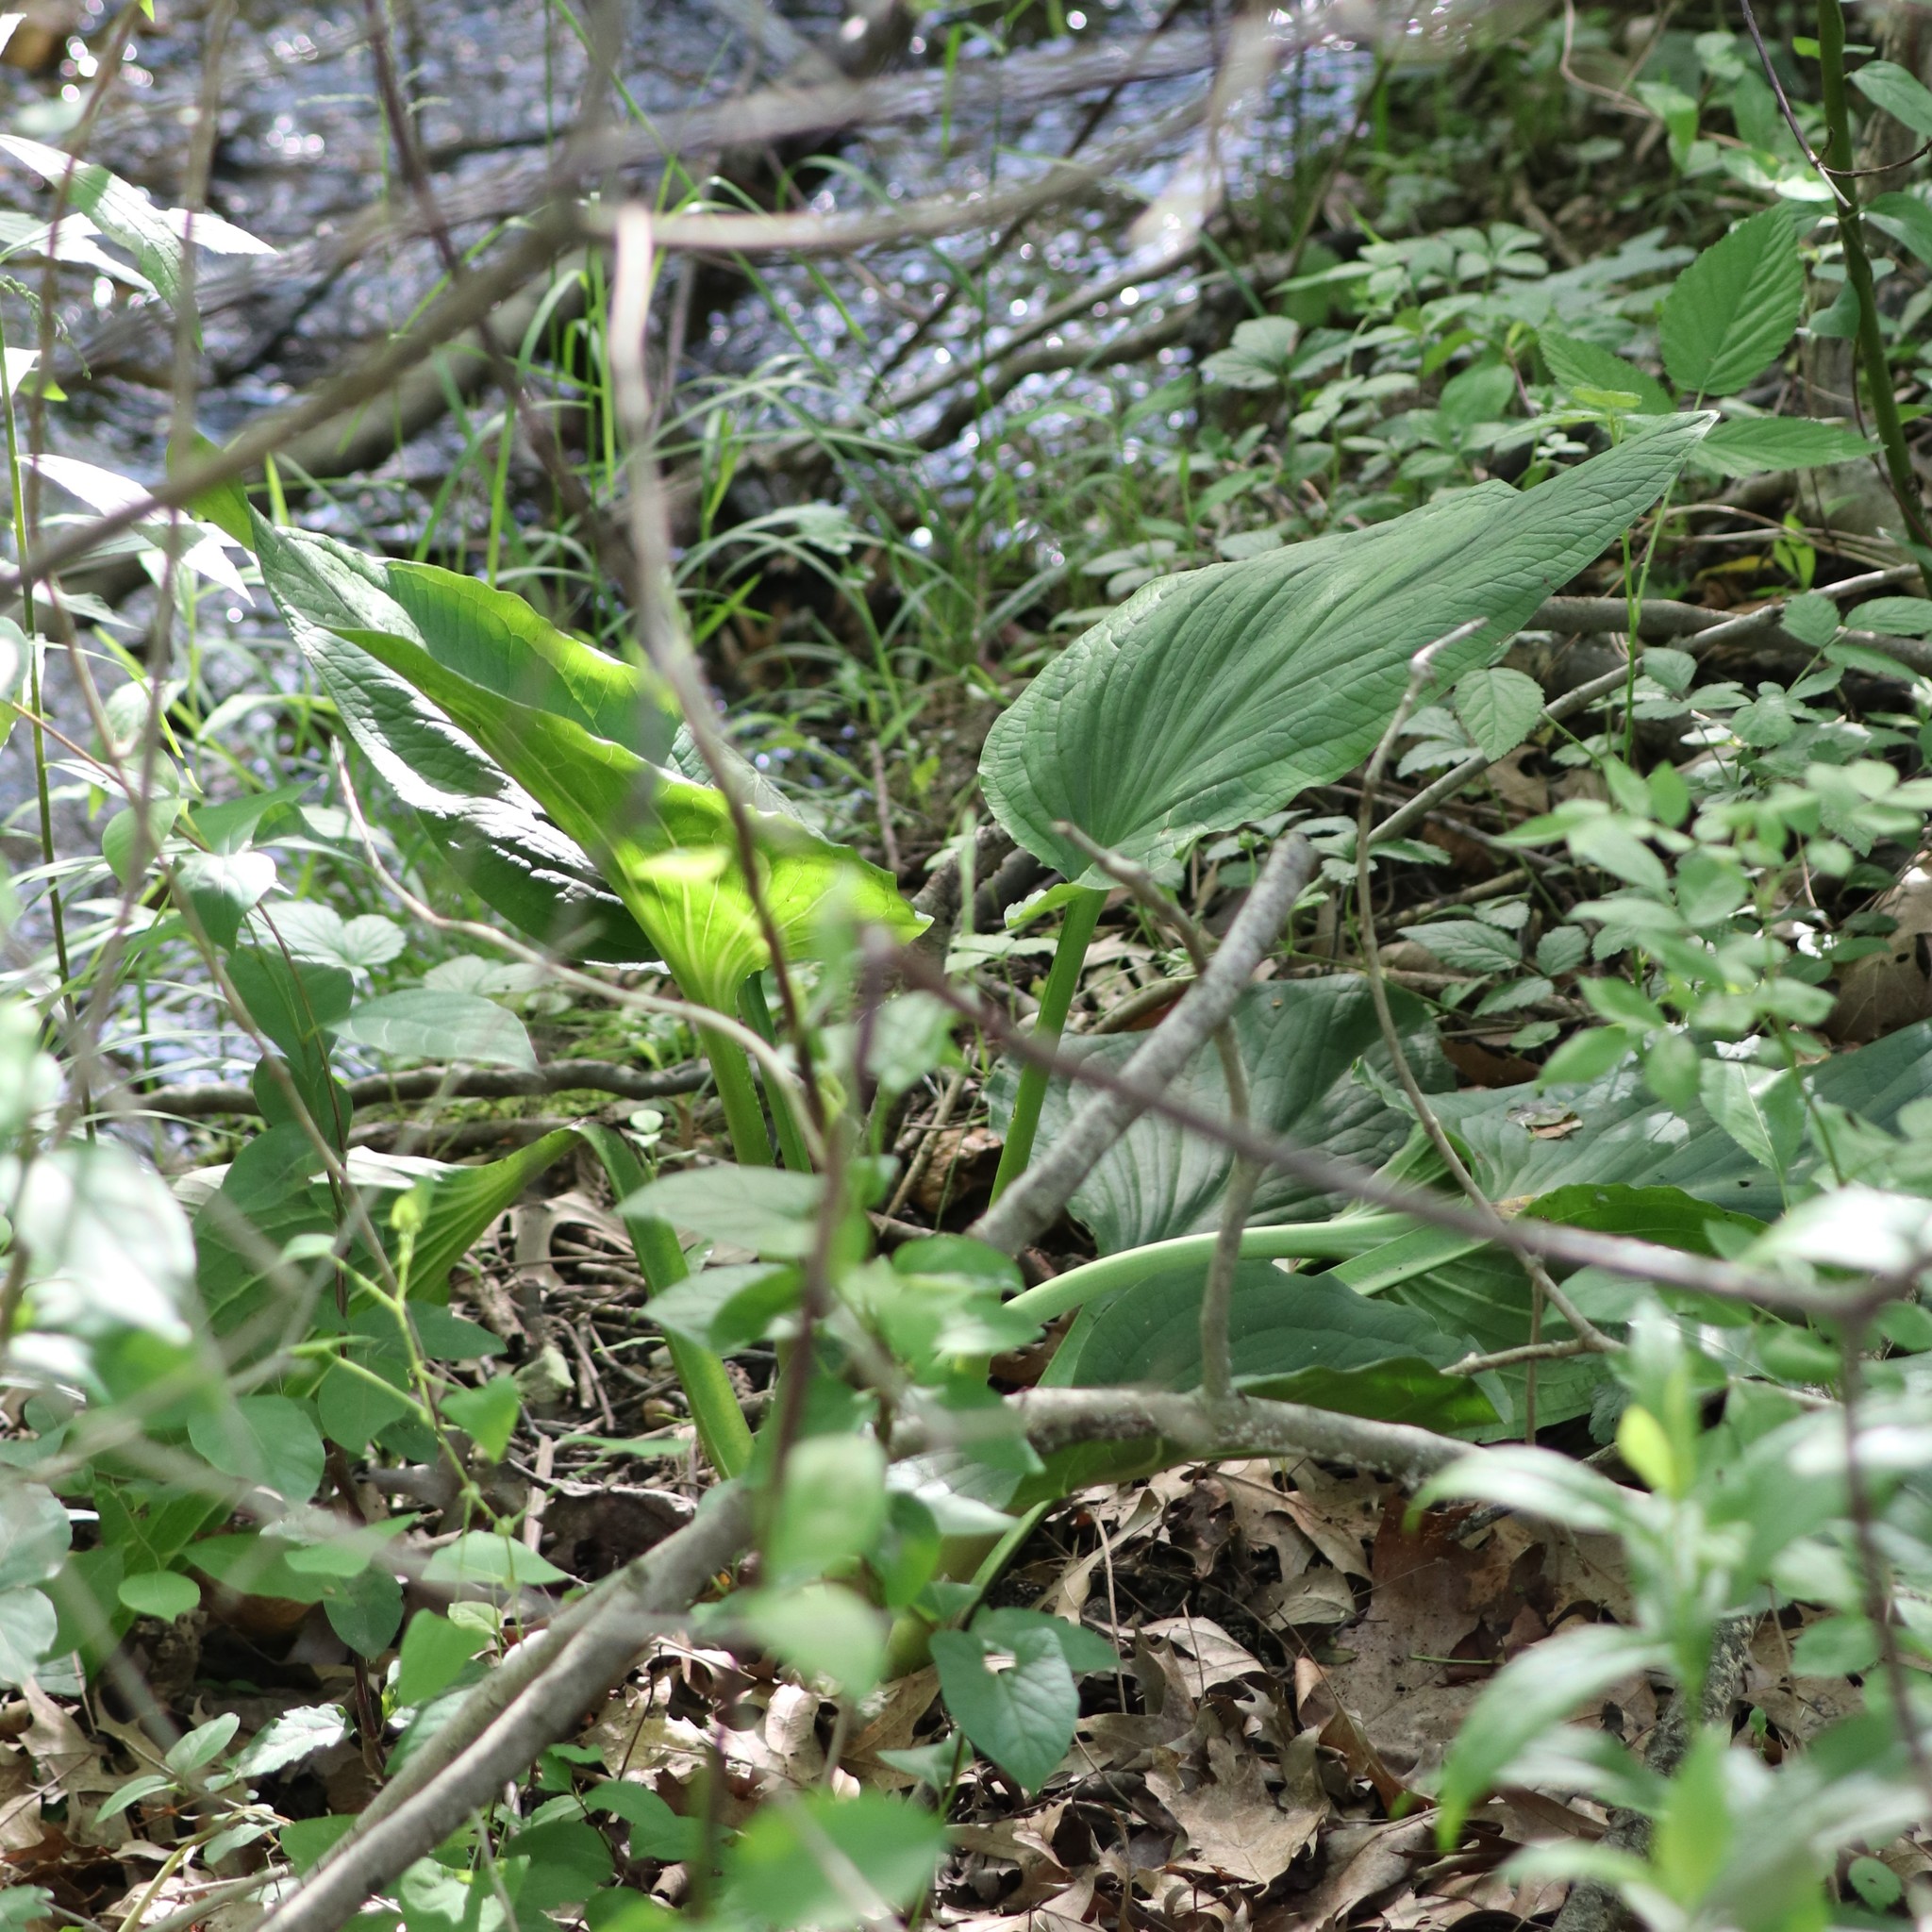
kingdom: Plantae
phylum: Tracheophyta
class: Liliopsida
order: Alismatales
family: Araceae
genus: Symplocarpus
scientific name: Symplocarpus foetidus
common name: Eastern skunk cabbage
